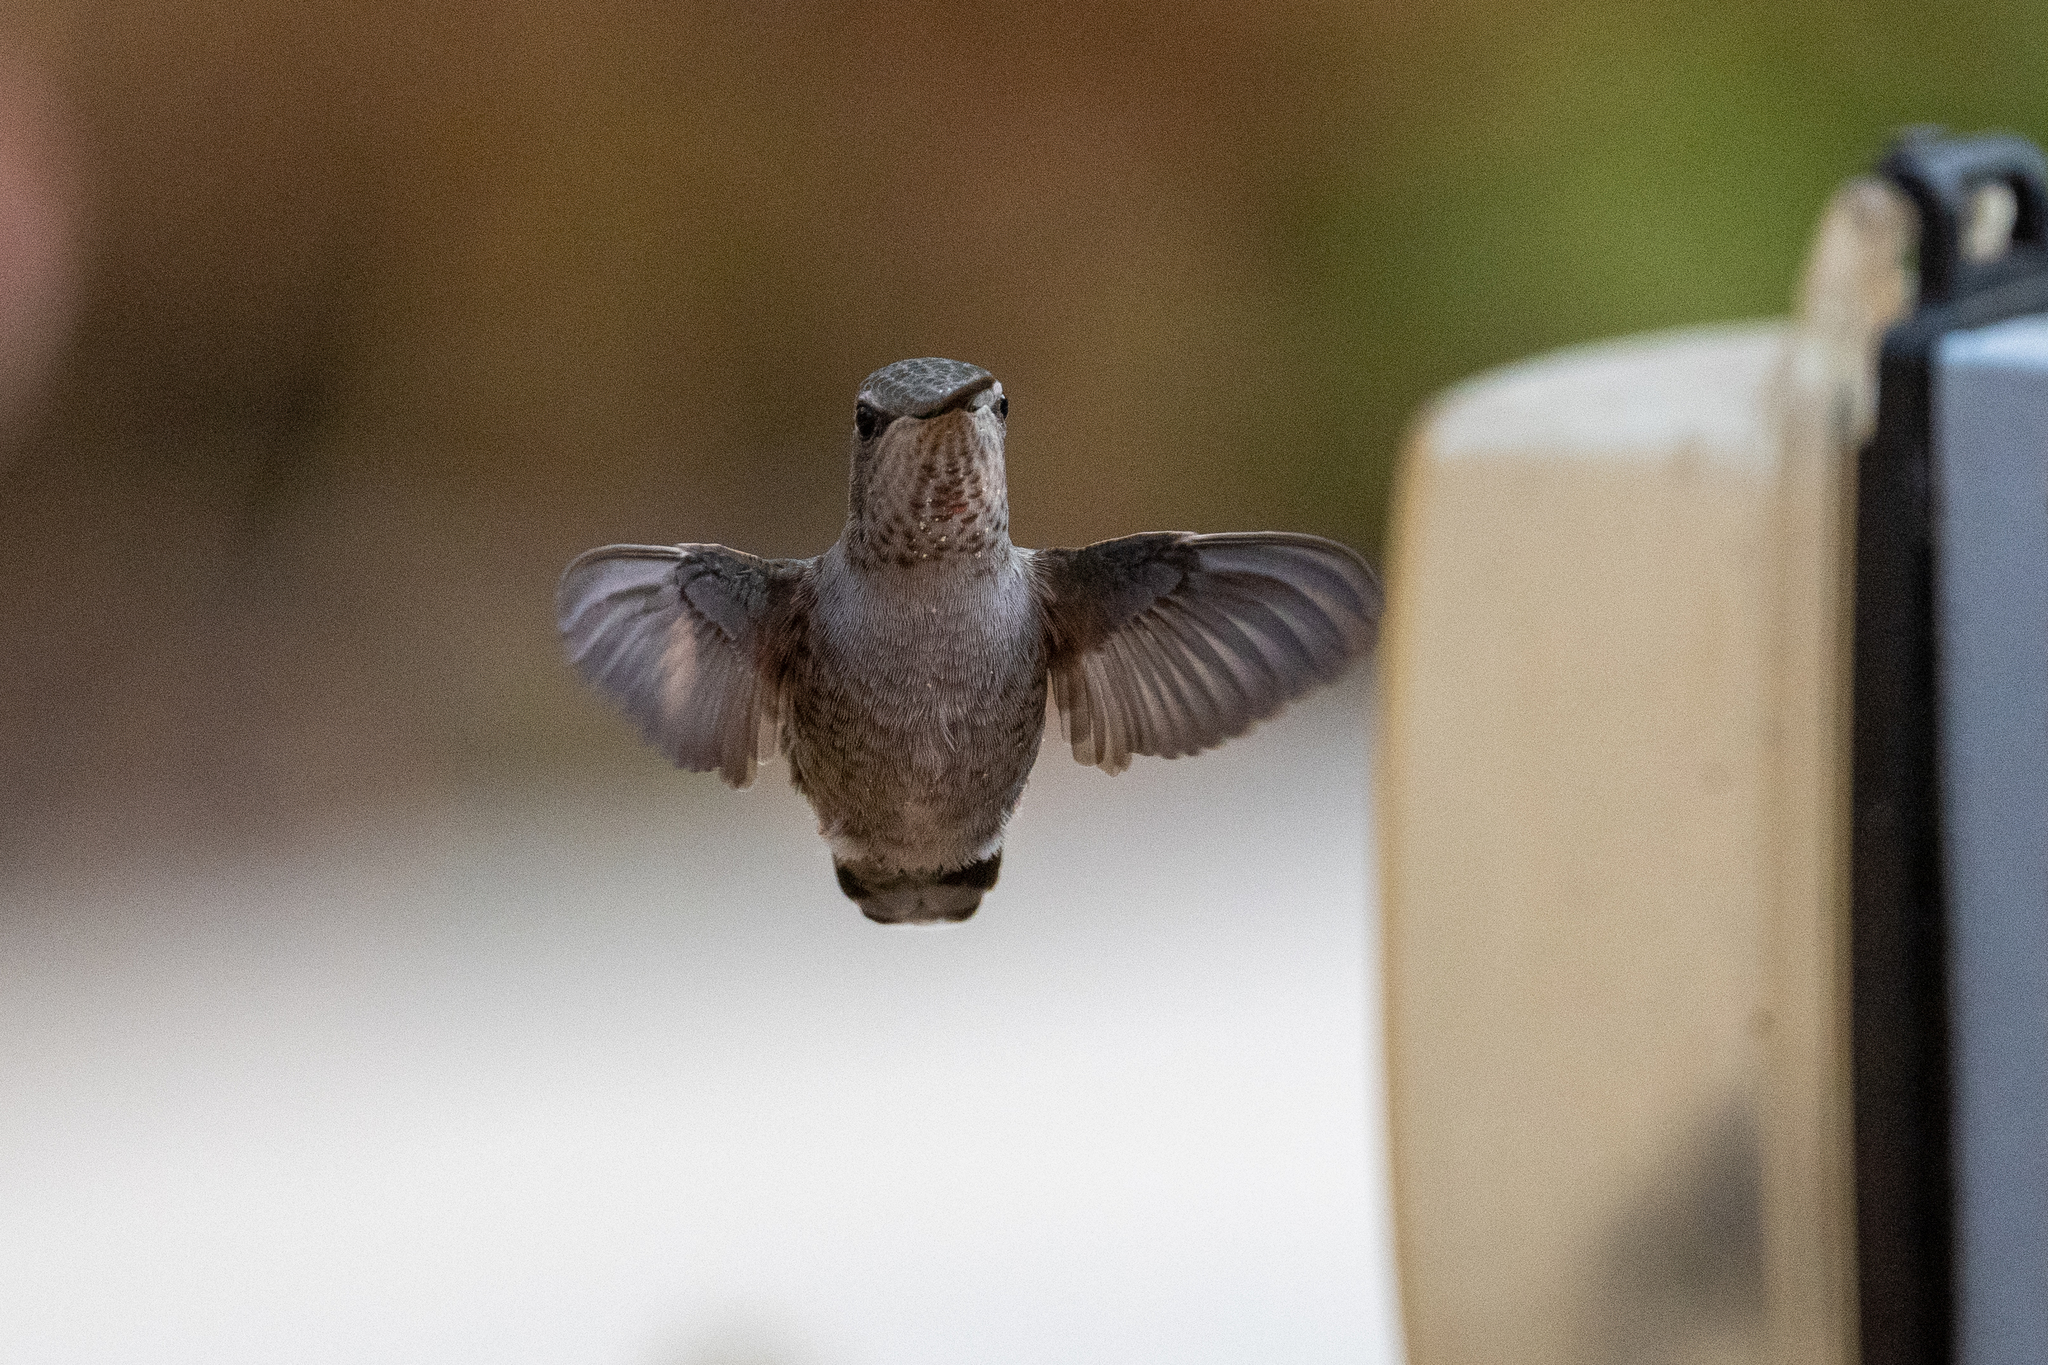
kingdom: Animalia
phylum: Chordata
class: Aves
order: Apodiformes
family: Trochilidae
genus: Calypte
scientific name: Calypte anna
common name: Anna's hummingbird
